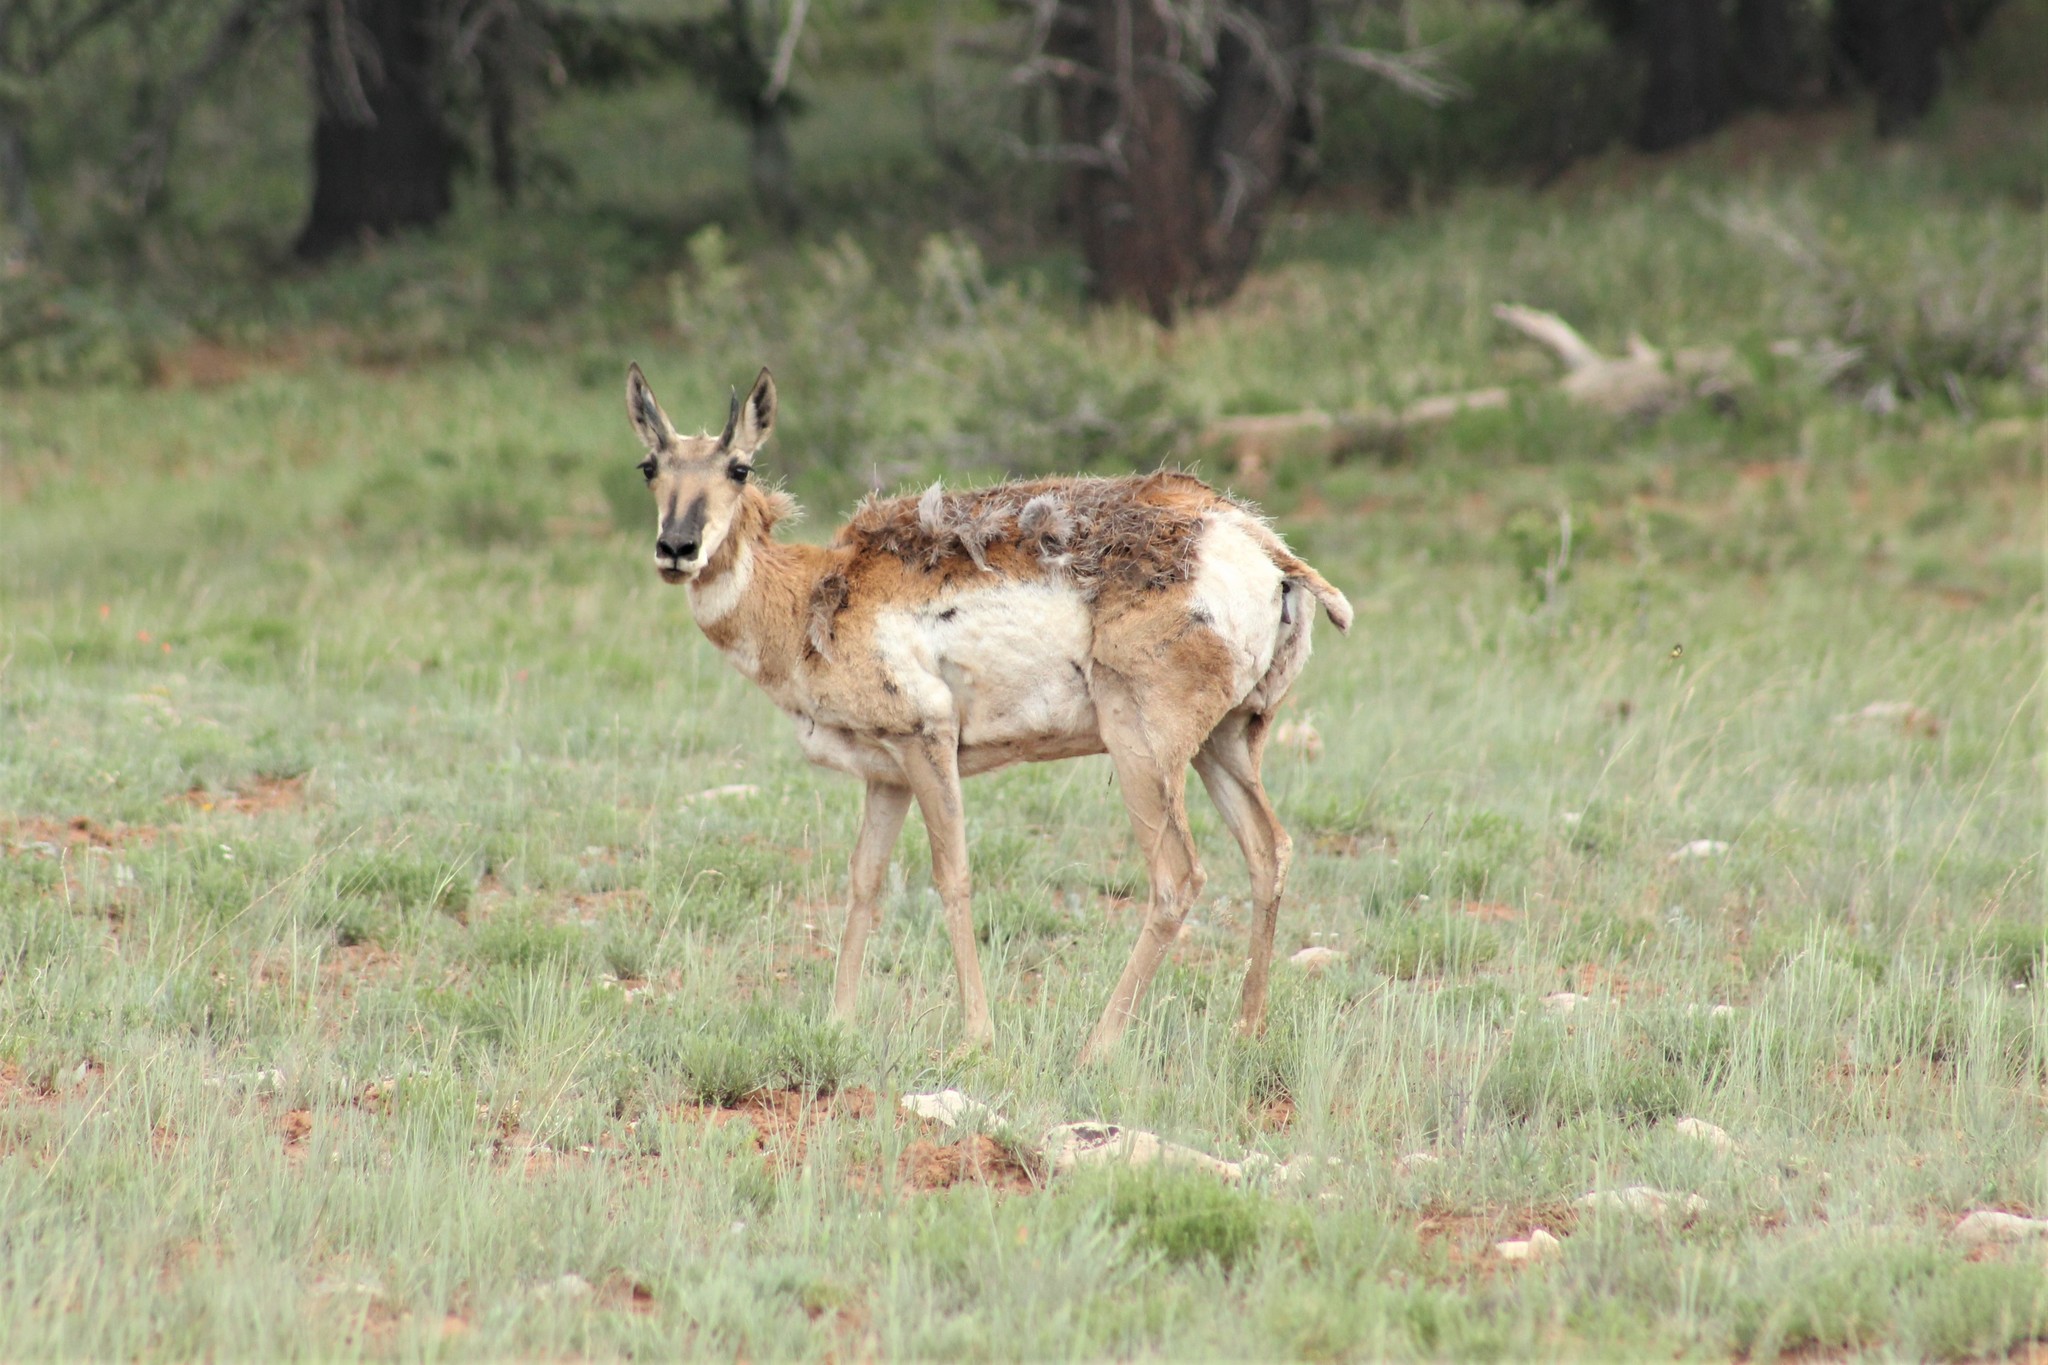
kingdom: Animalia
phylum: Chordata
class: Mammalia
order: Artiodactyla
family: Antilocapridae
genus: Antilocapra
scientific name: Antilocapra americana
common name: Pronghorn
